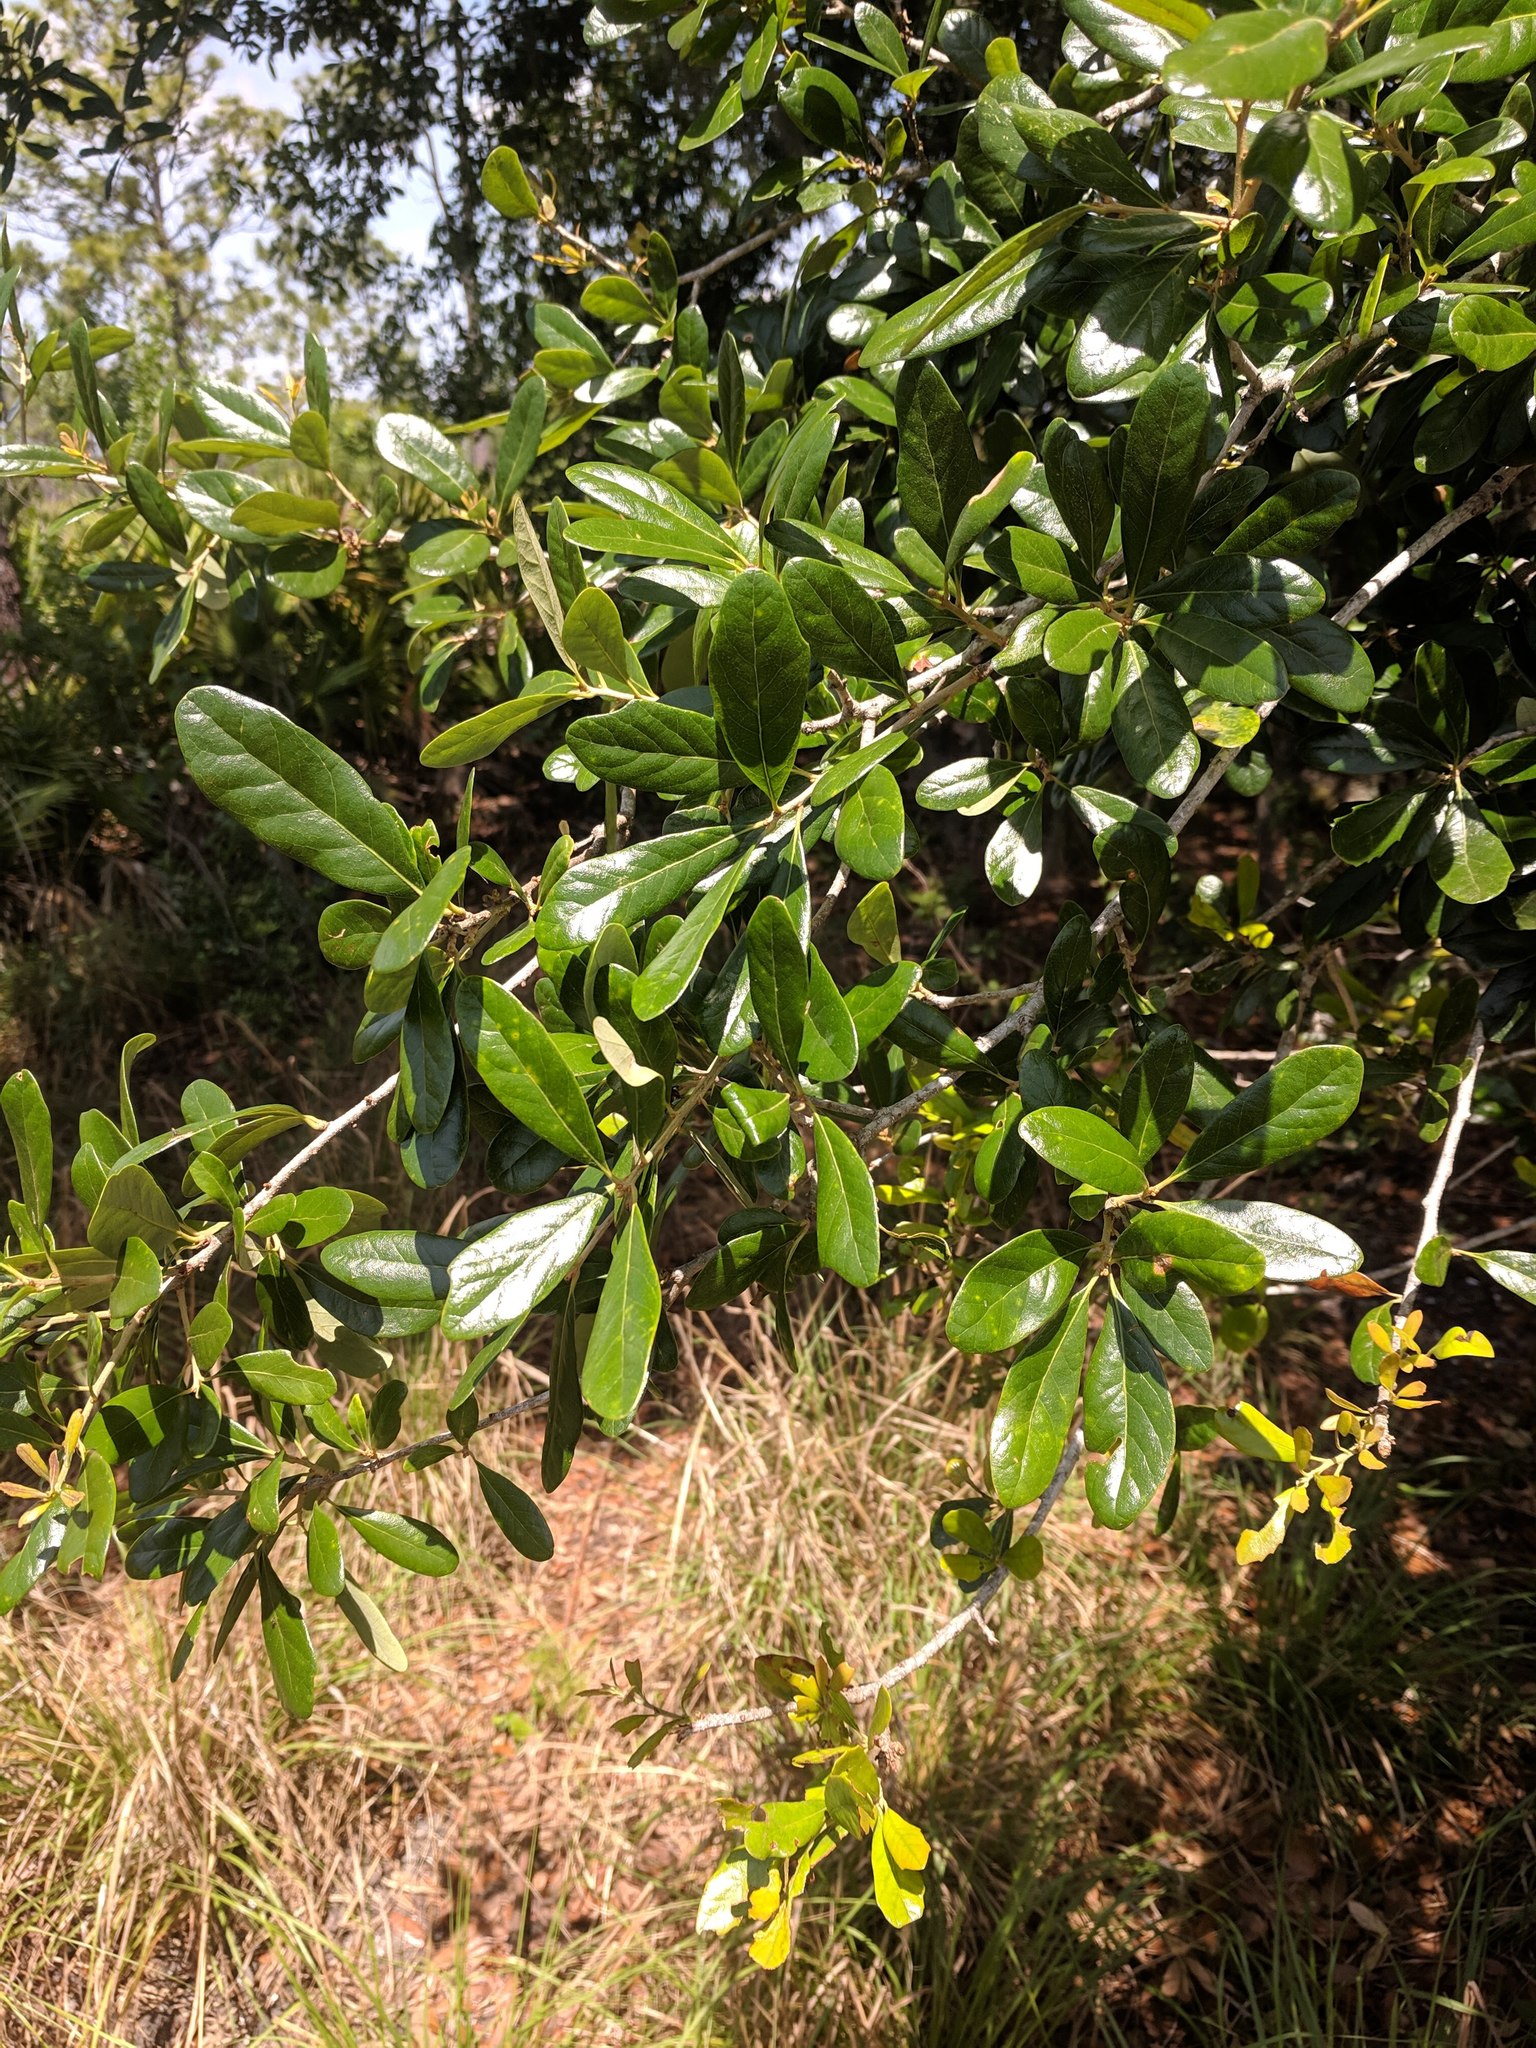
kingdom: Plantae
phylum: Tracheophyta
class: Magnoliopsida
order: Fagales
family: Fagaceae
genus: Quercus
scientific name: Quercus virginiana
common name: Southern live oak
